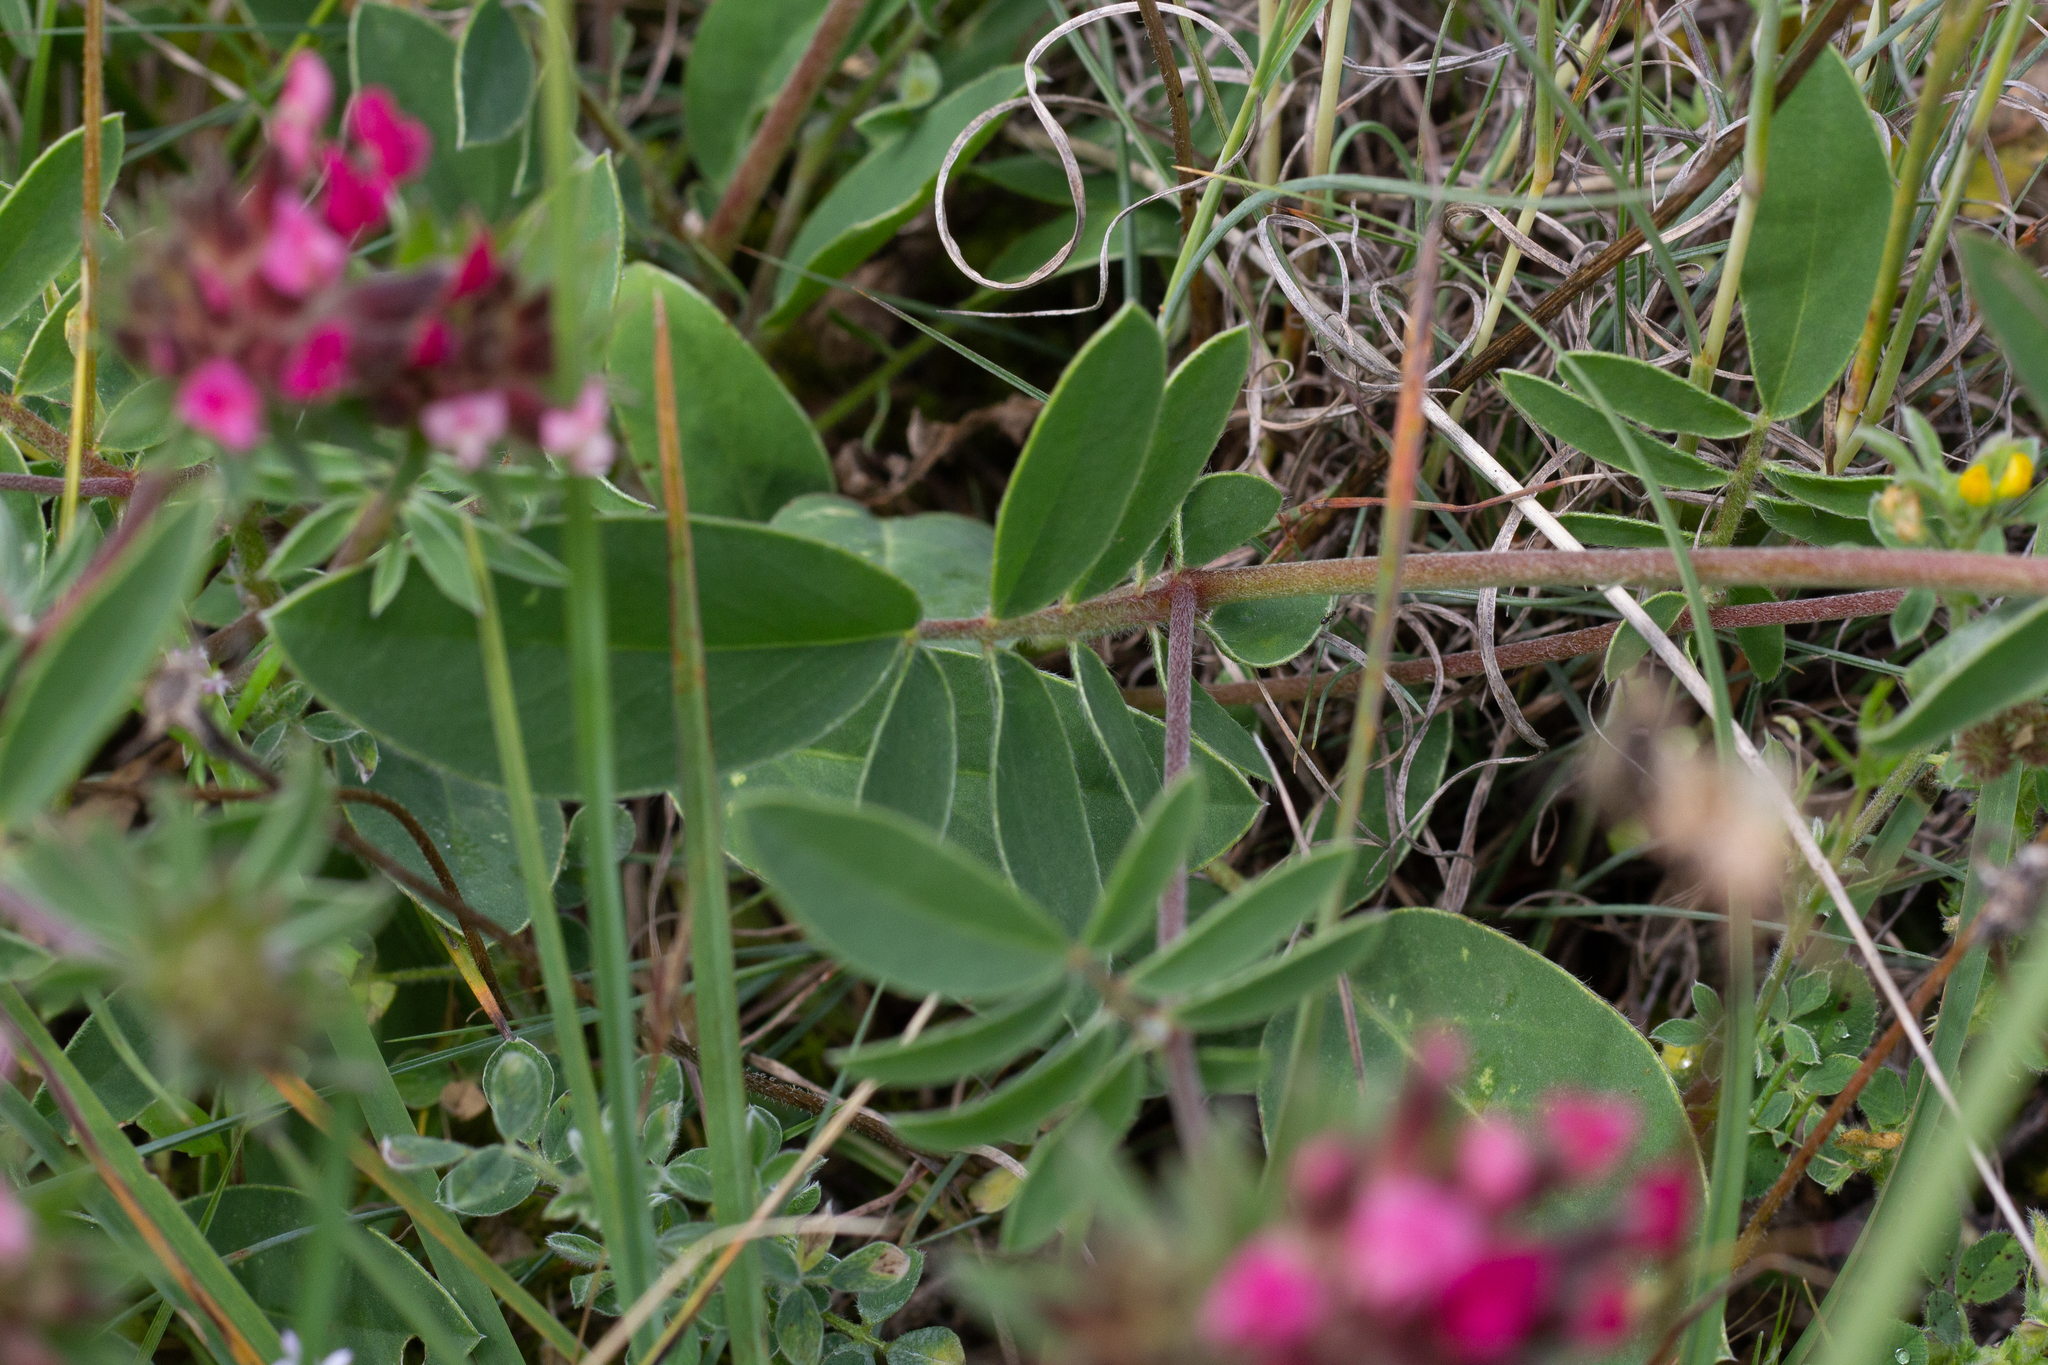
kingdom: Plantae
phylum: Tracheophyta
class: Magnoliopsida
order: Fabales
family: Fabaceae
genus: Anthyllis
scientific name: Anthyllis vulneraria
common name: Kidney vetch
